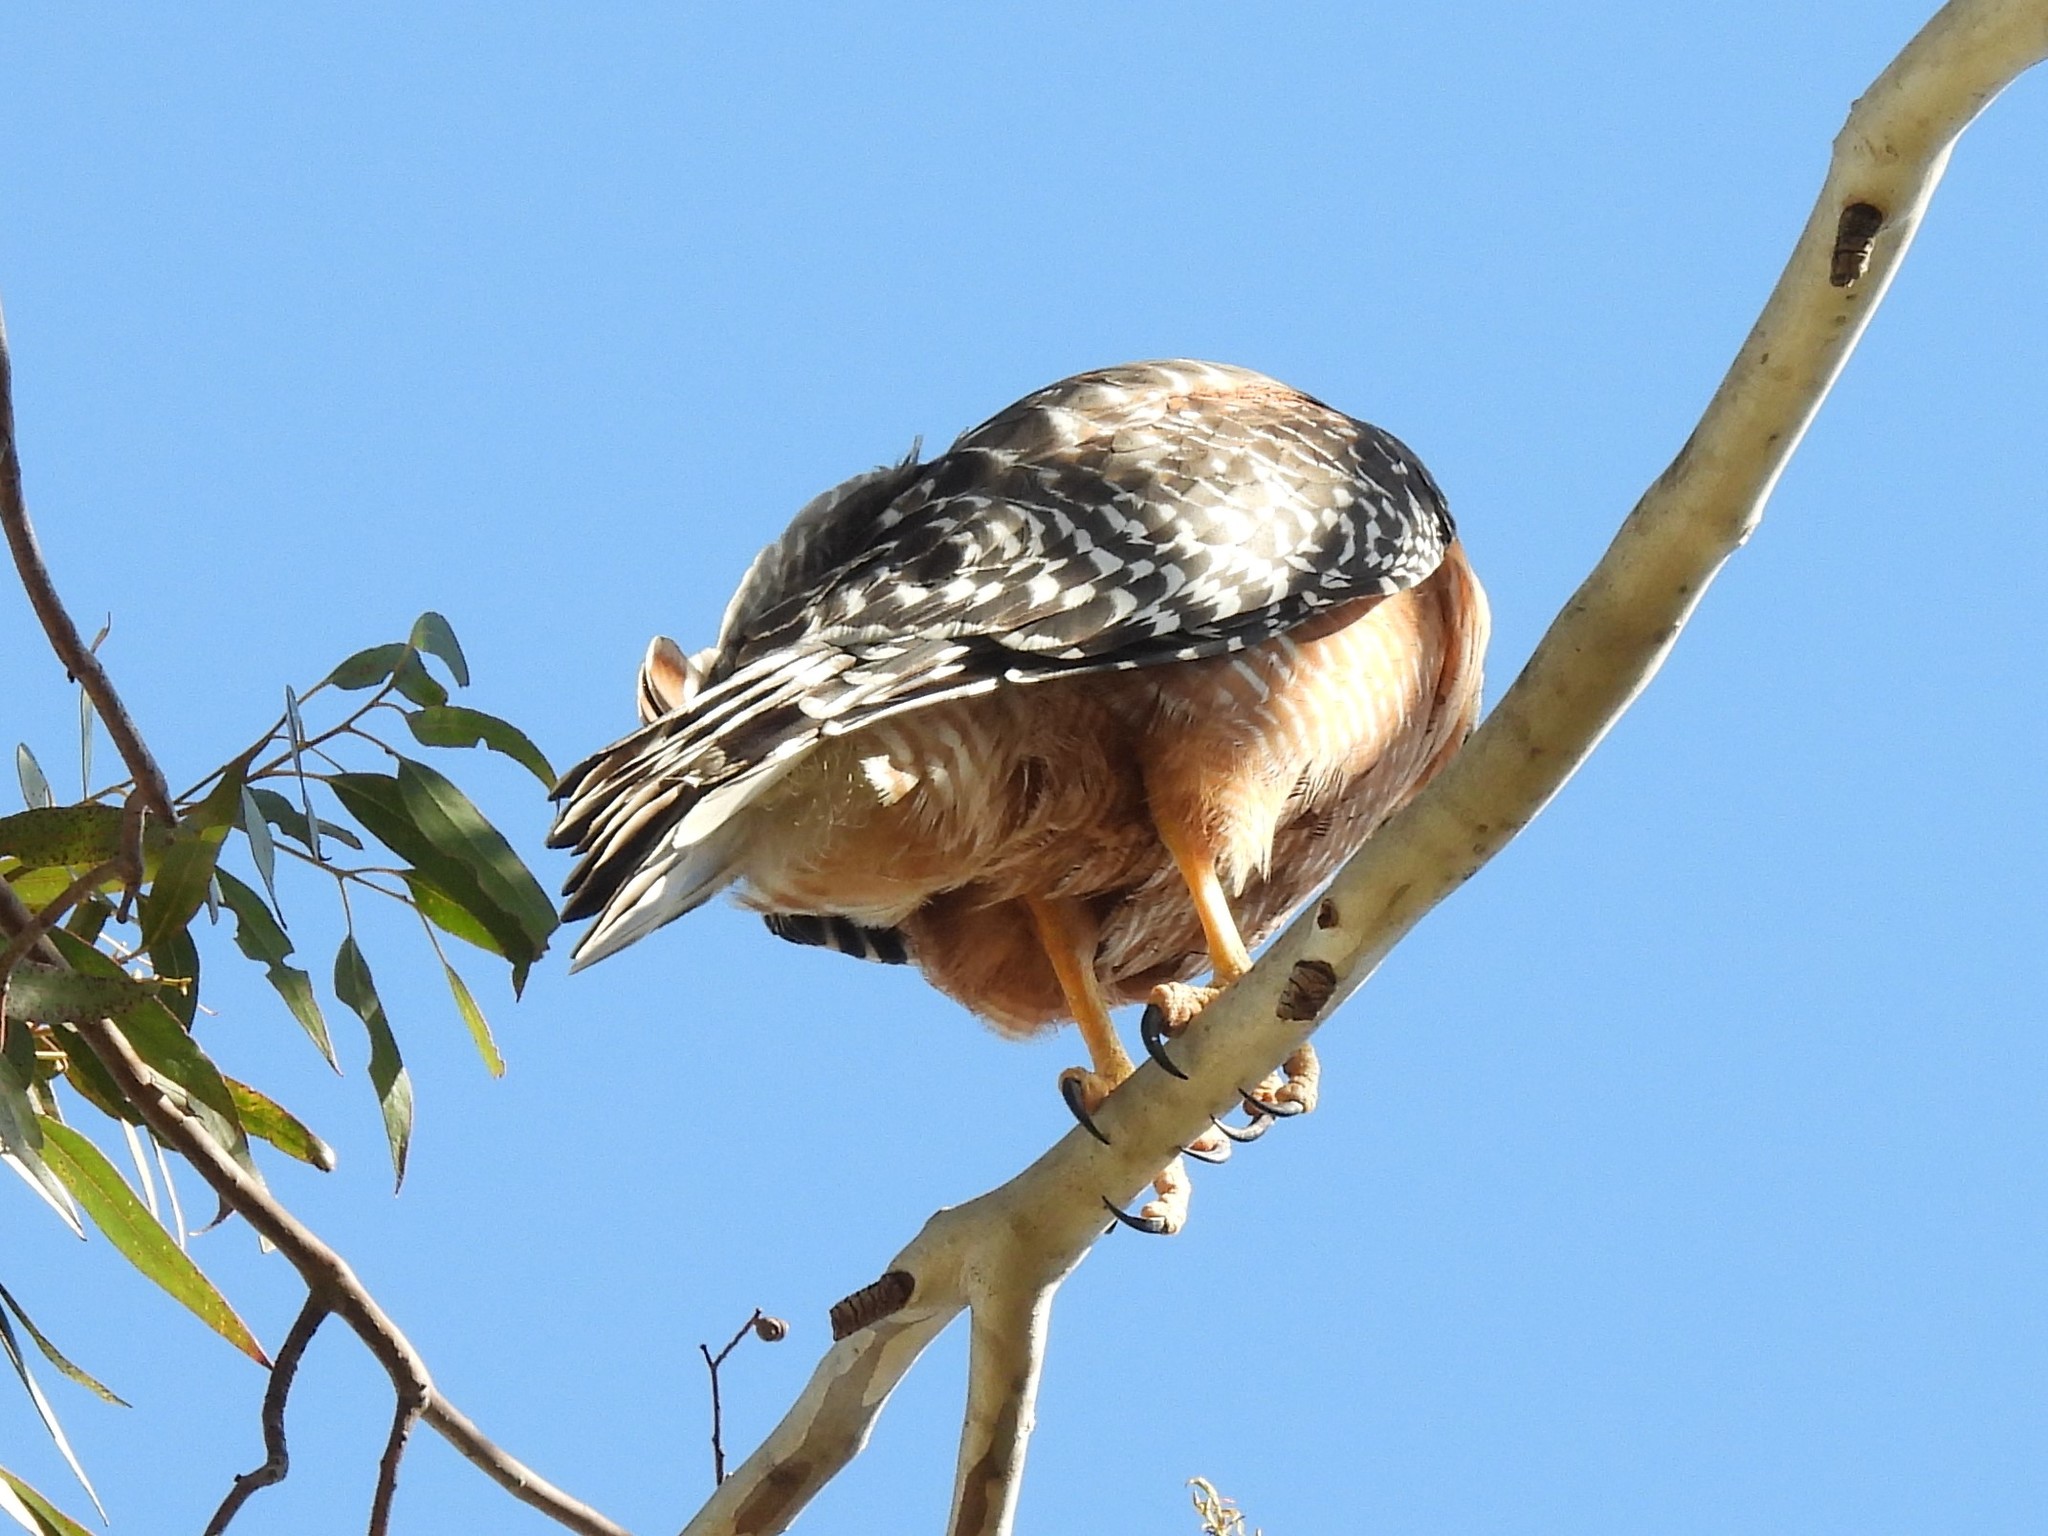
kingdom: Animalia
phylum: Chordata
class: Aves
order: Accipitriformes
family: Accipitridae
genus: Buteo
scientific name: Buteo lineatus
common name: Red-shouldered hawk
